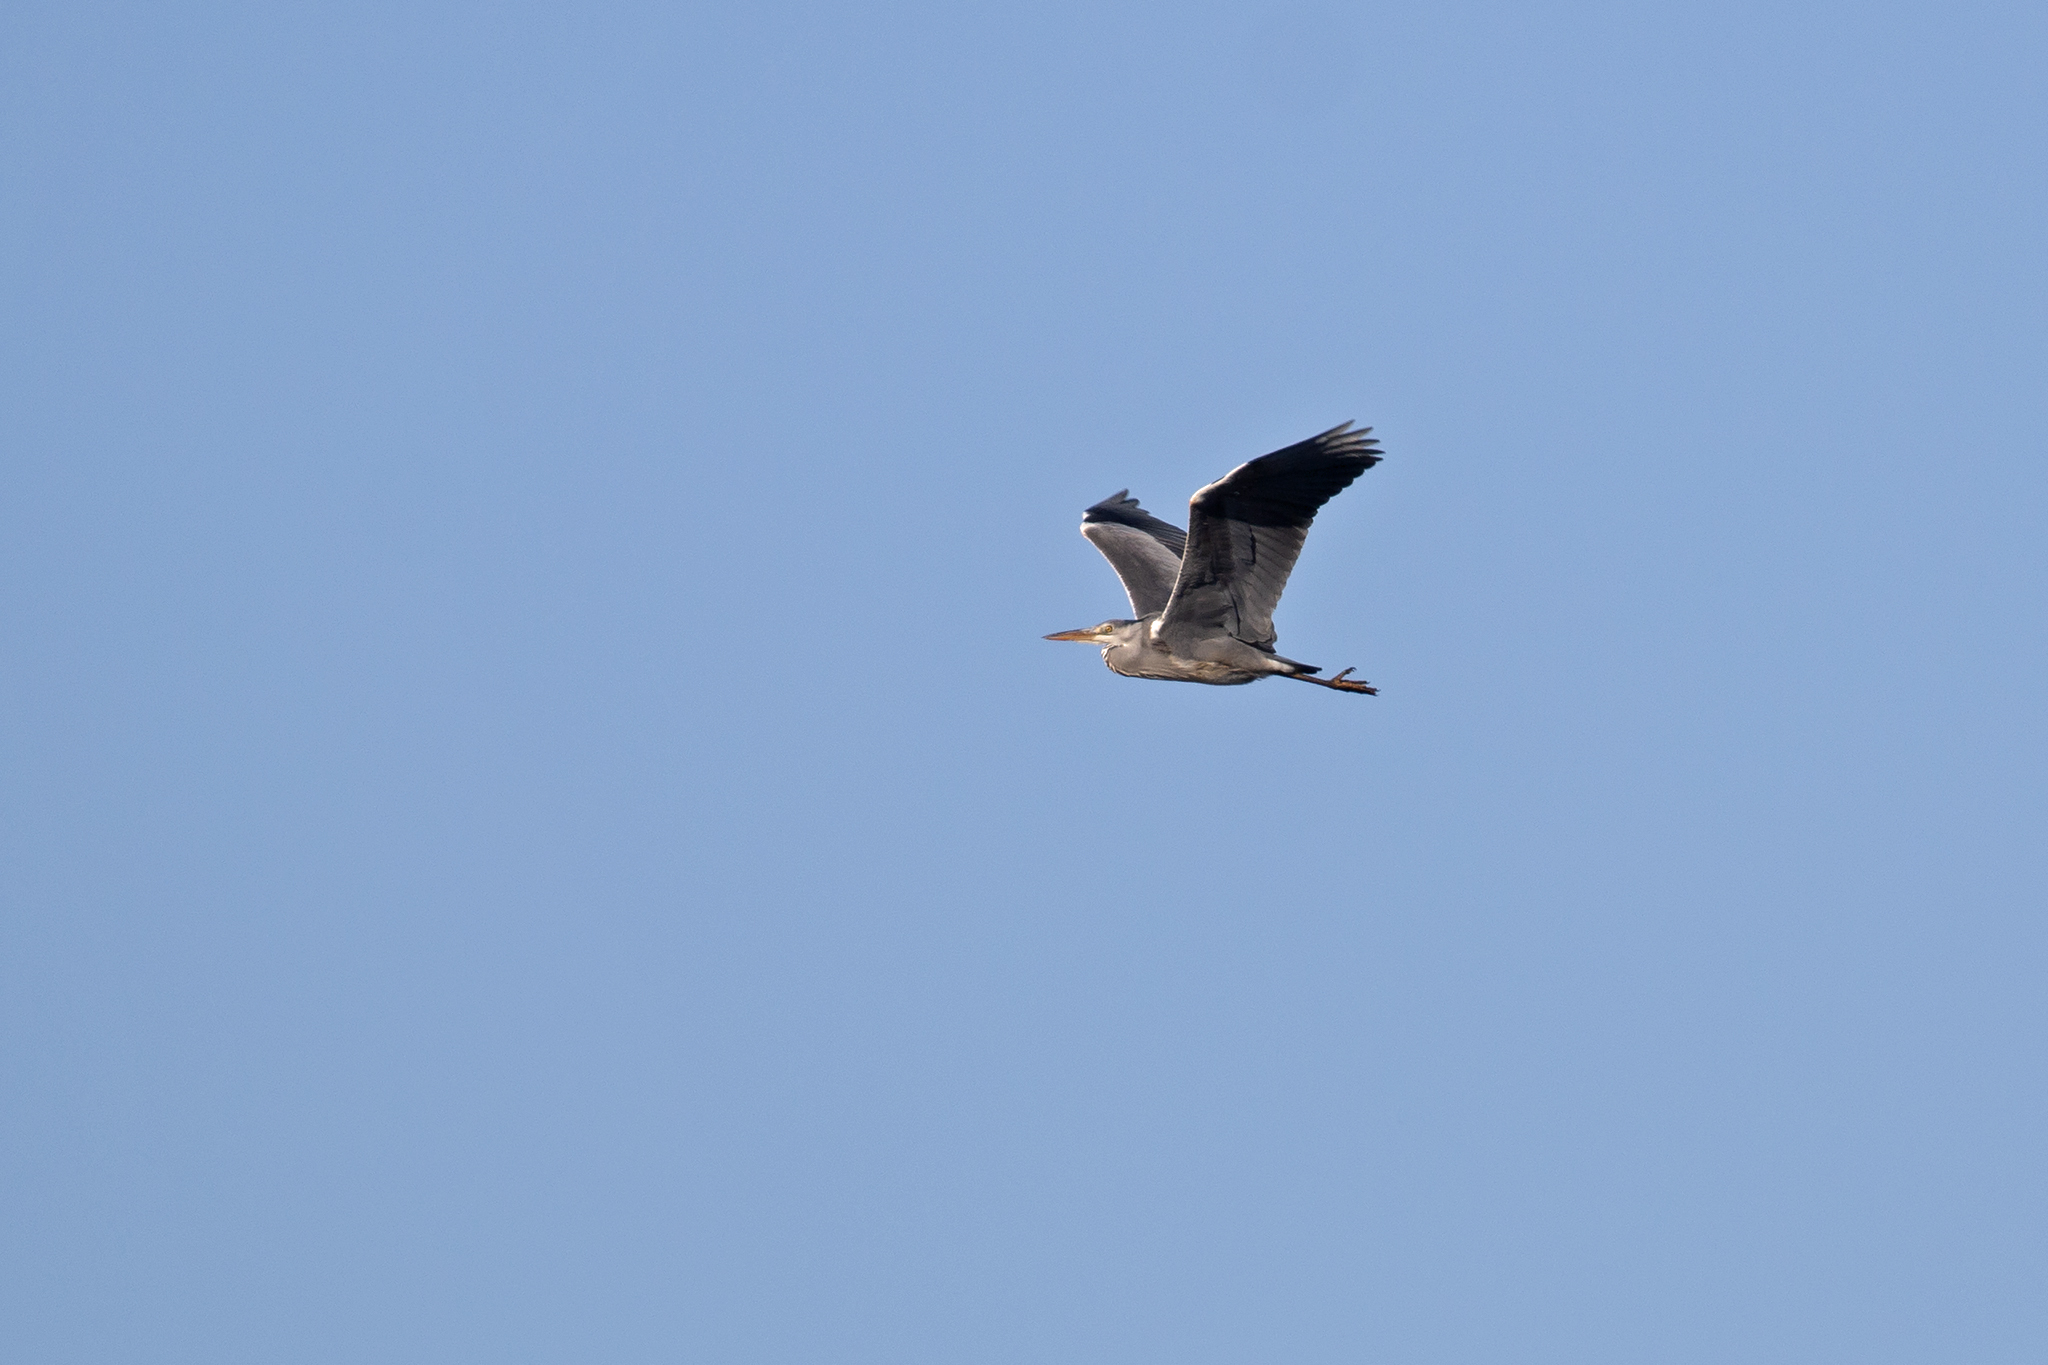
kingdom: Animalia
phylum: Chordata
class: Aves
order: Pelecaniformes
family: Ardeidae
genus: Ardea
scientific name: Ardea cinerea
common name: Grey heron
